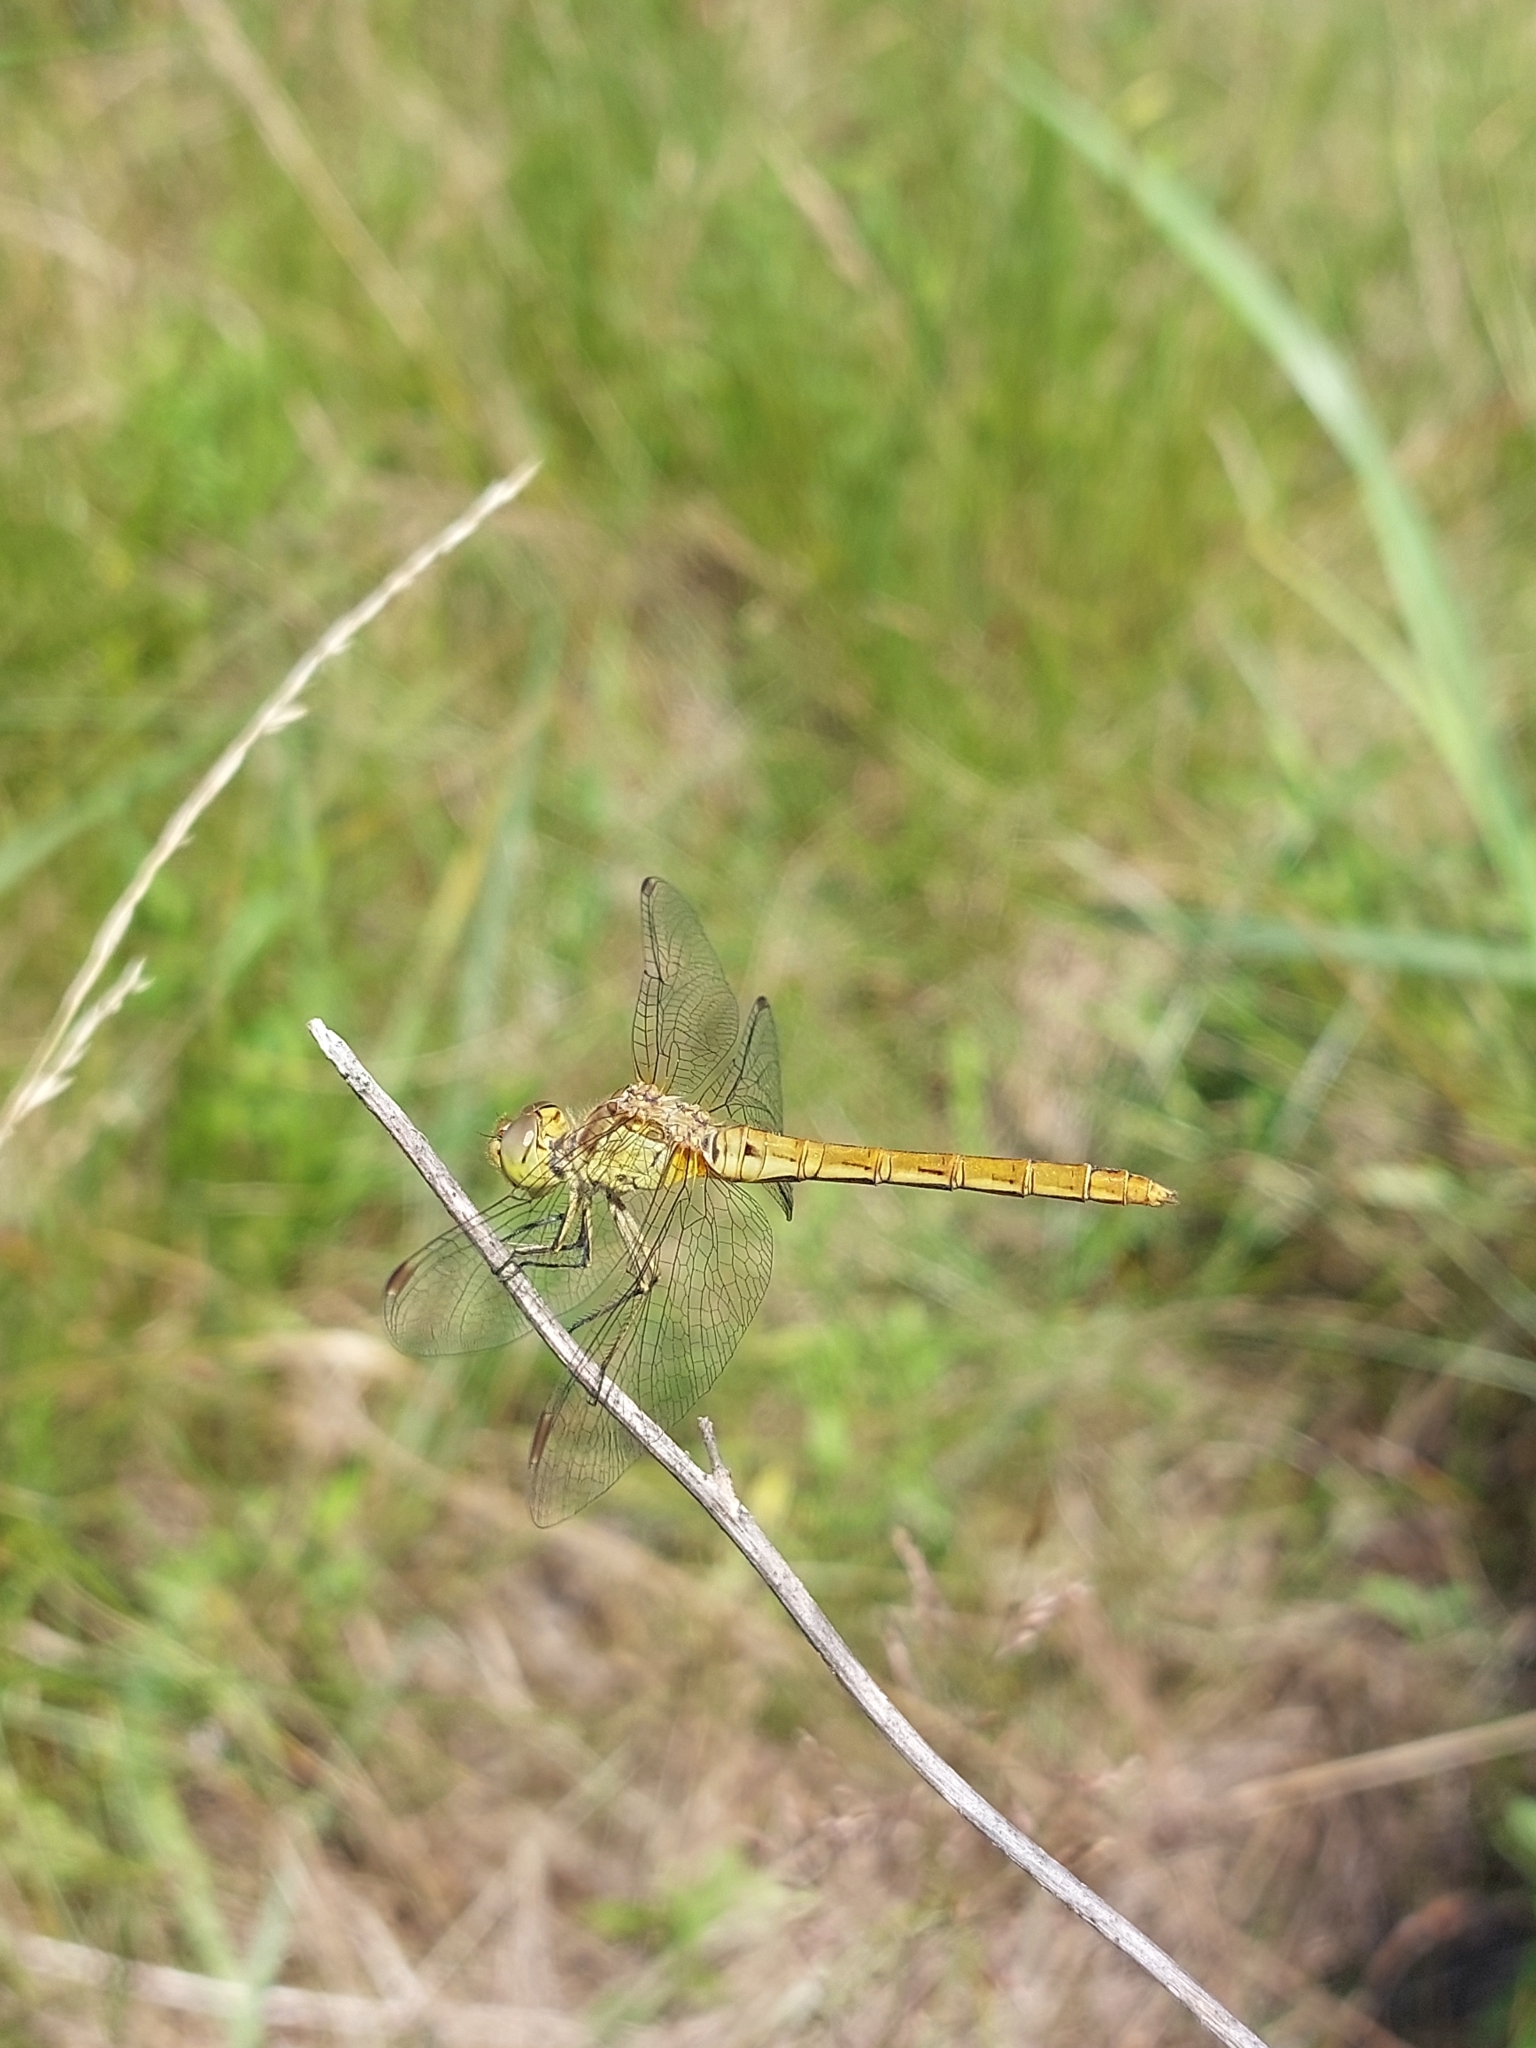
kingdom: Animalia
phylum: Arthropoda
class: Insecta
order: Odonata
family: Libellulidae
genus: Sympetrum
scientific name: Sympetrum meridionale
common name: Southern darter
